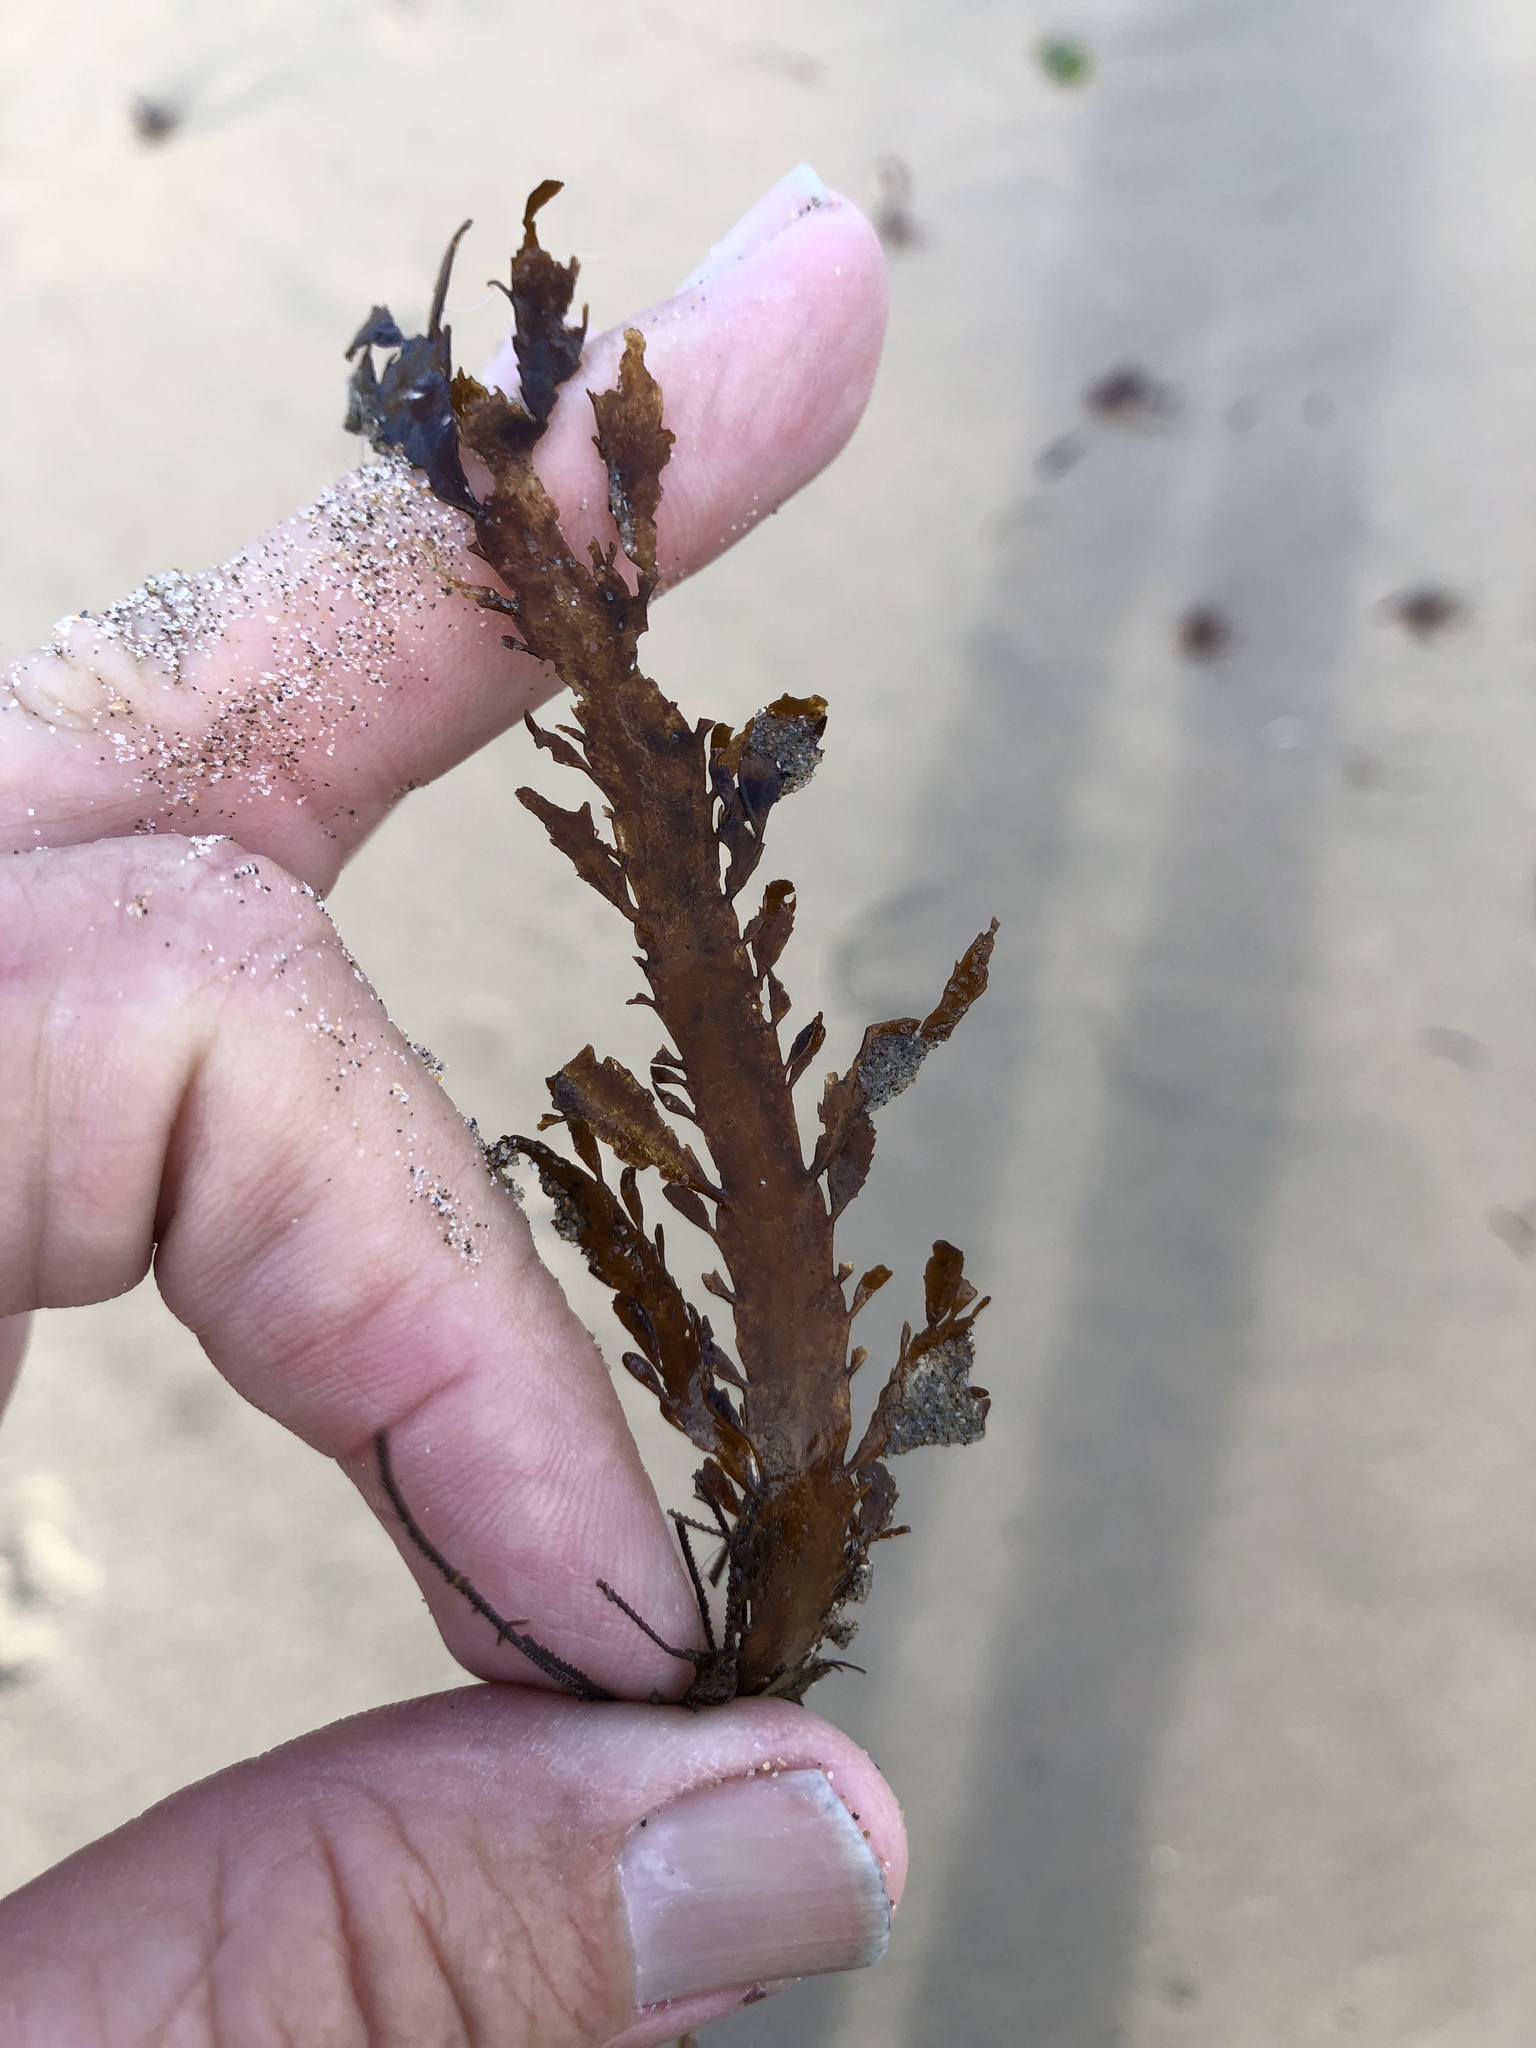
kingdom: Chromista
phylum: Ochrophyta
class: Phaeophyceae
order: Desmarestiales
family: Desmarestiaceae
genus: Desmarestia
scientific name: Desmarestia ligulata
